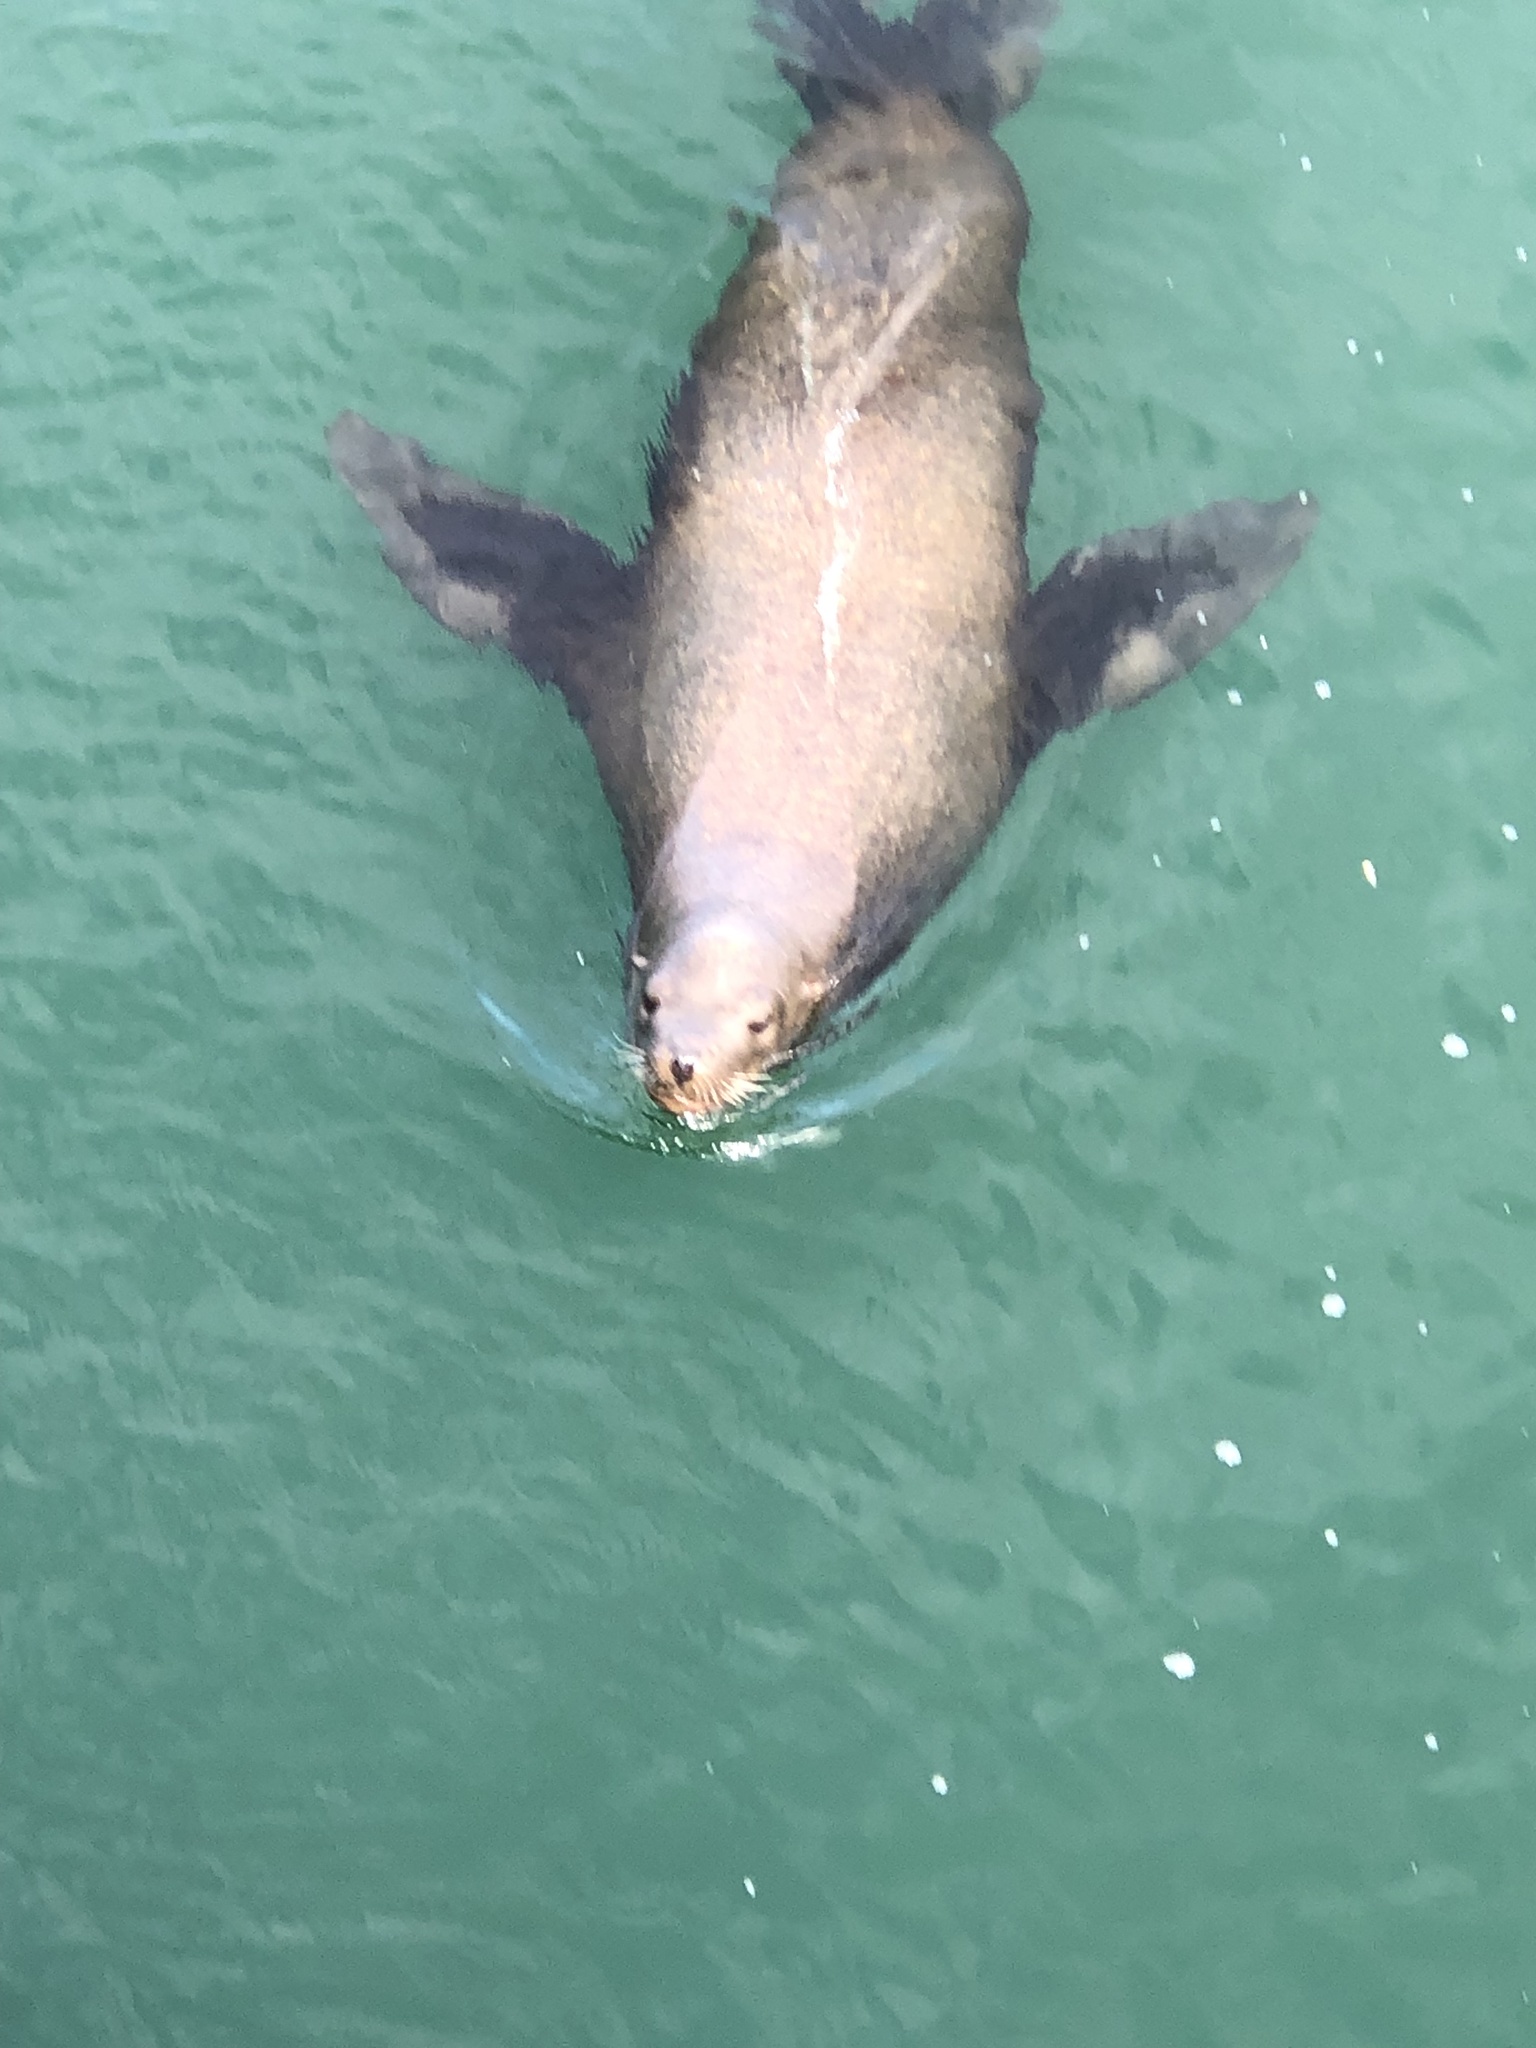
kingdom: Animalia
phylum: Chordata
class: Mammalia
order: Carnivora
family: Otariidae
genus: Zalophus
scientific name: Zalophus californianus
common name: California sea lion
